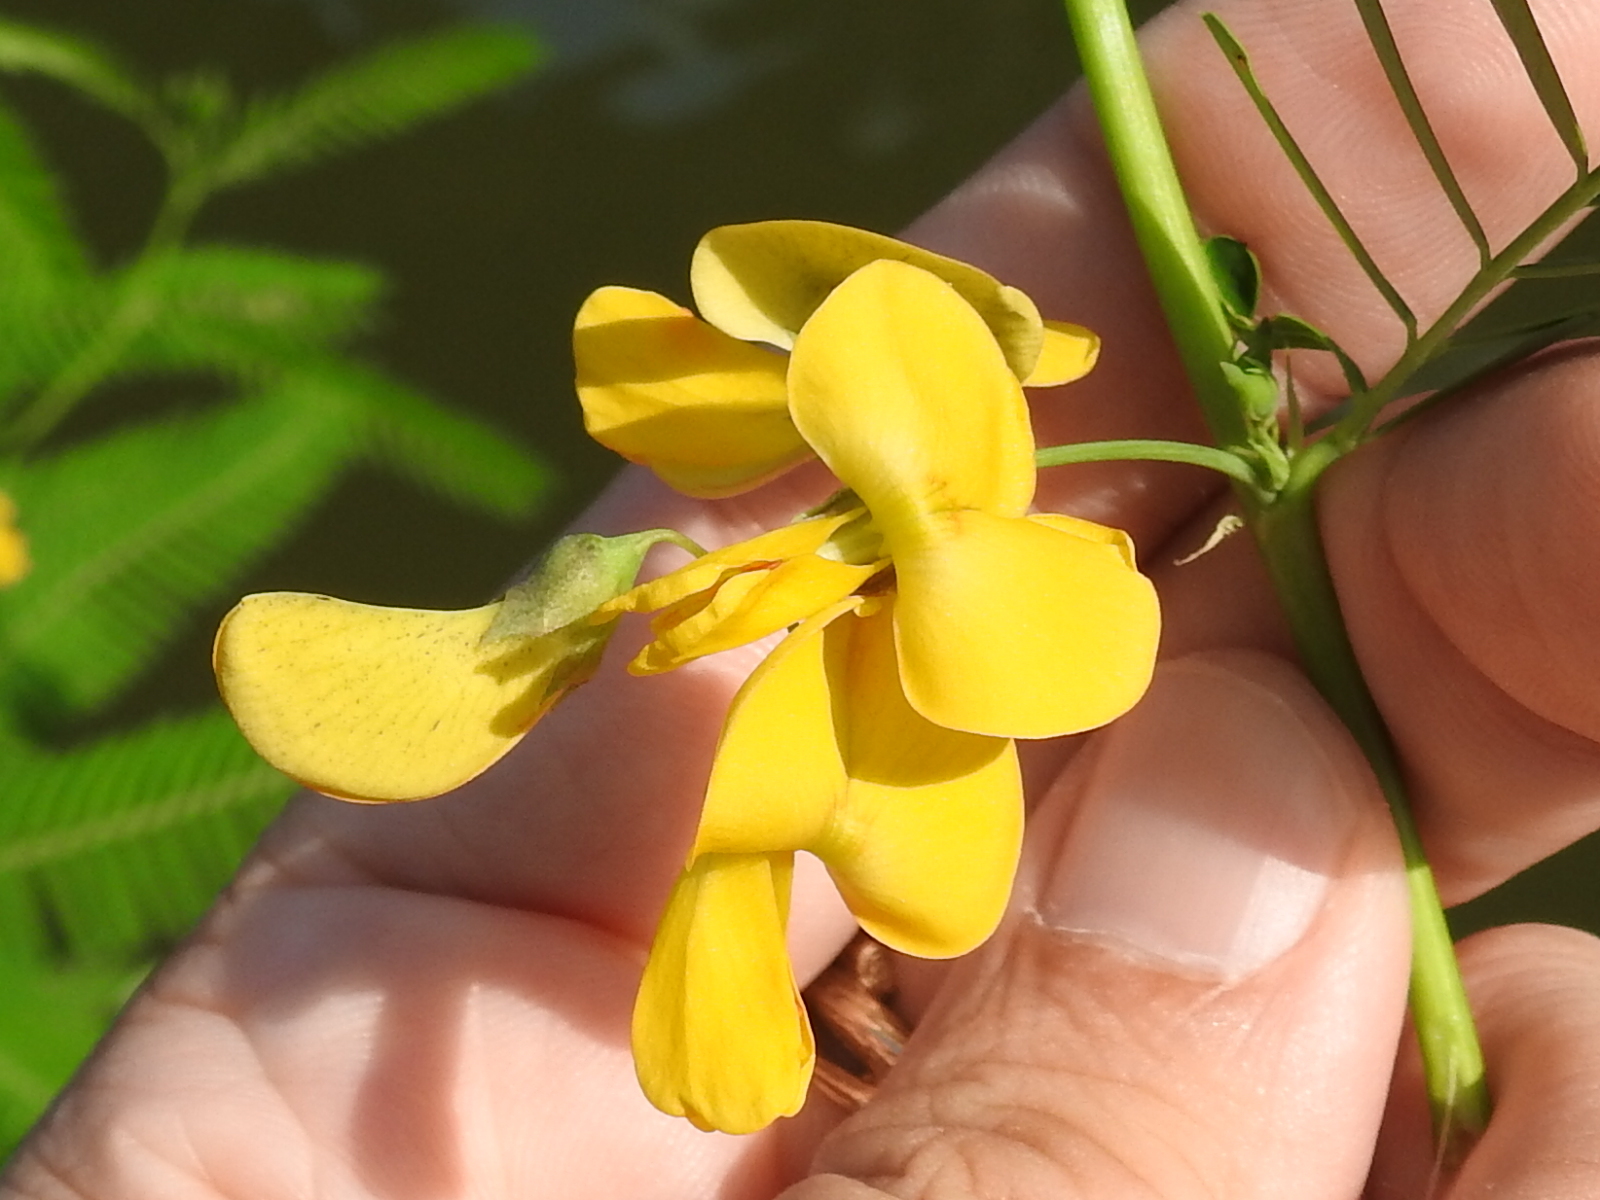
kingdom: Plantae
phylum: Tracheophyta
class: Magnoliopsida
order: Fabales
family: Fabaceae
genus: Sesbania
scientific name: Sesbania herbacea
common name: Bigpod sesbania
